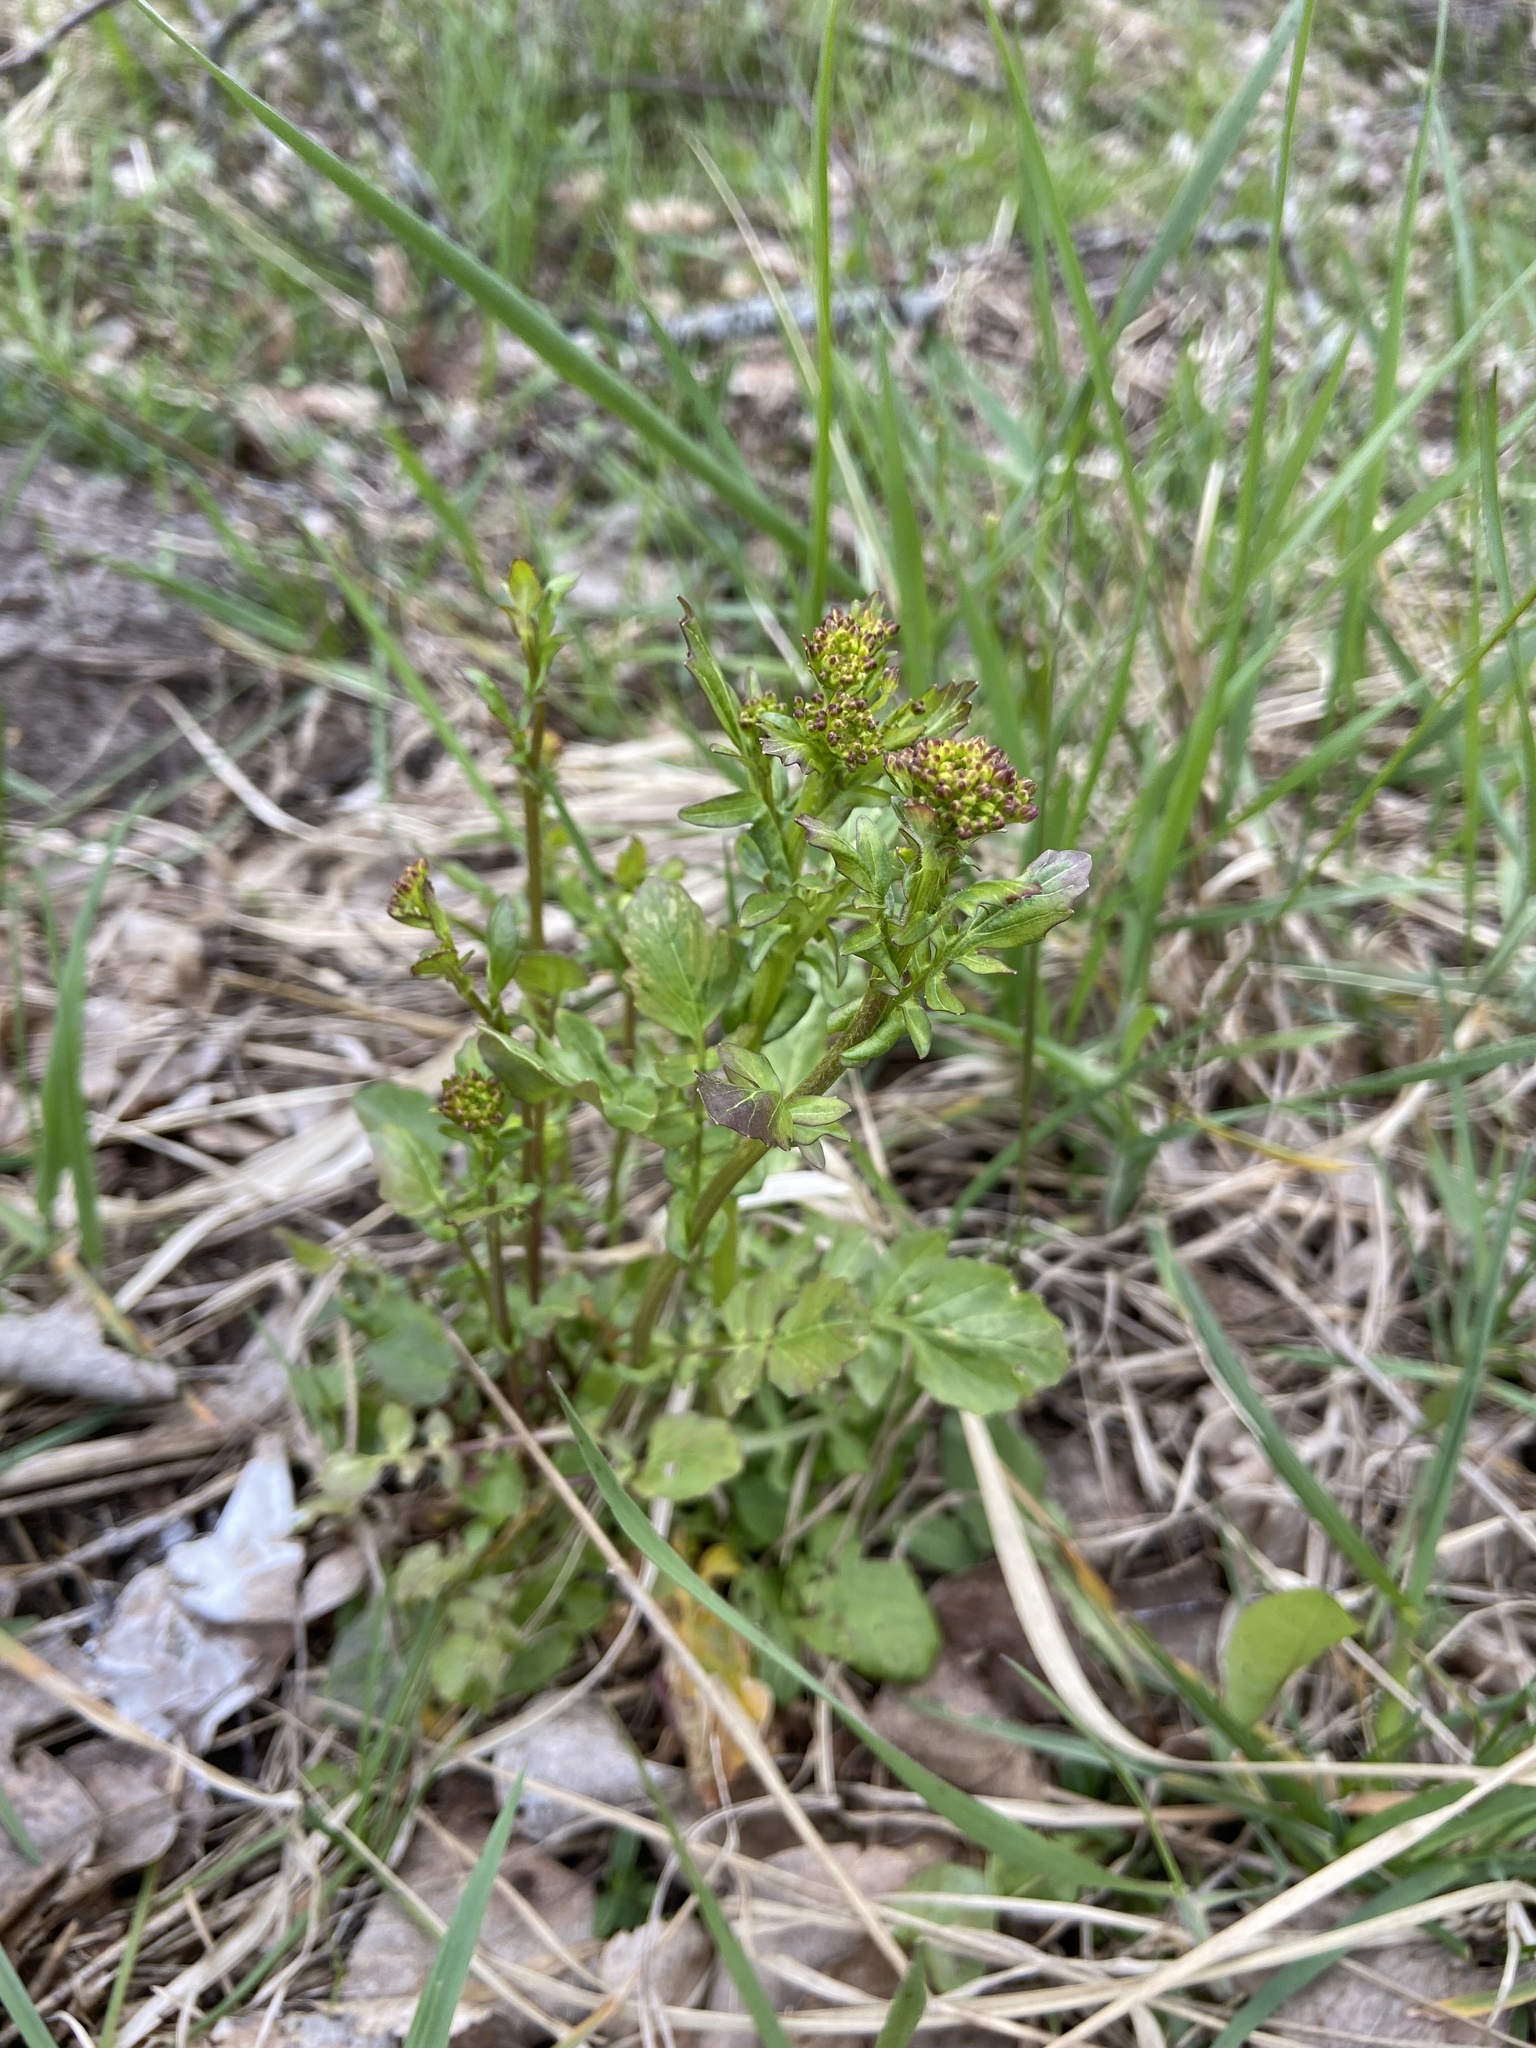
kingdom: Plantae
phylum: Tracheophyta
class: Magnoliopsida
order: Brassicales
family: Brassicaceae
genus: Barbarea
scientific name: Barbarea vulgaris
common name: Cressy-greens
